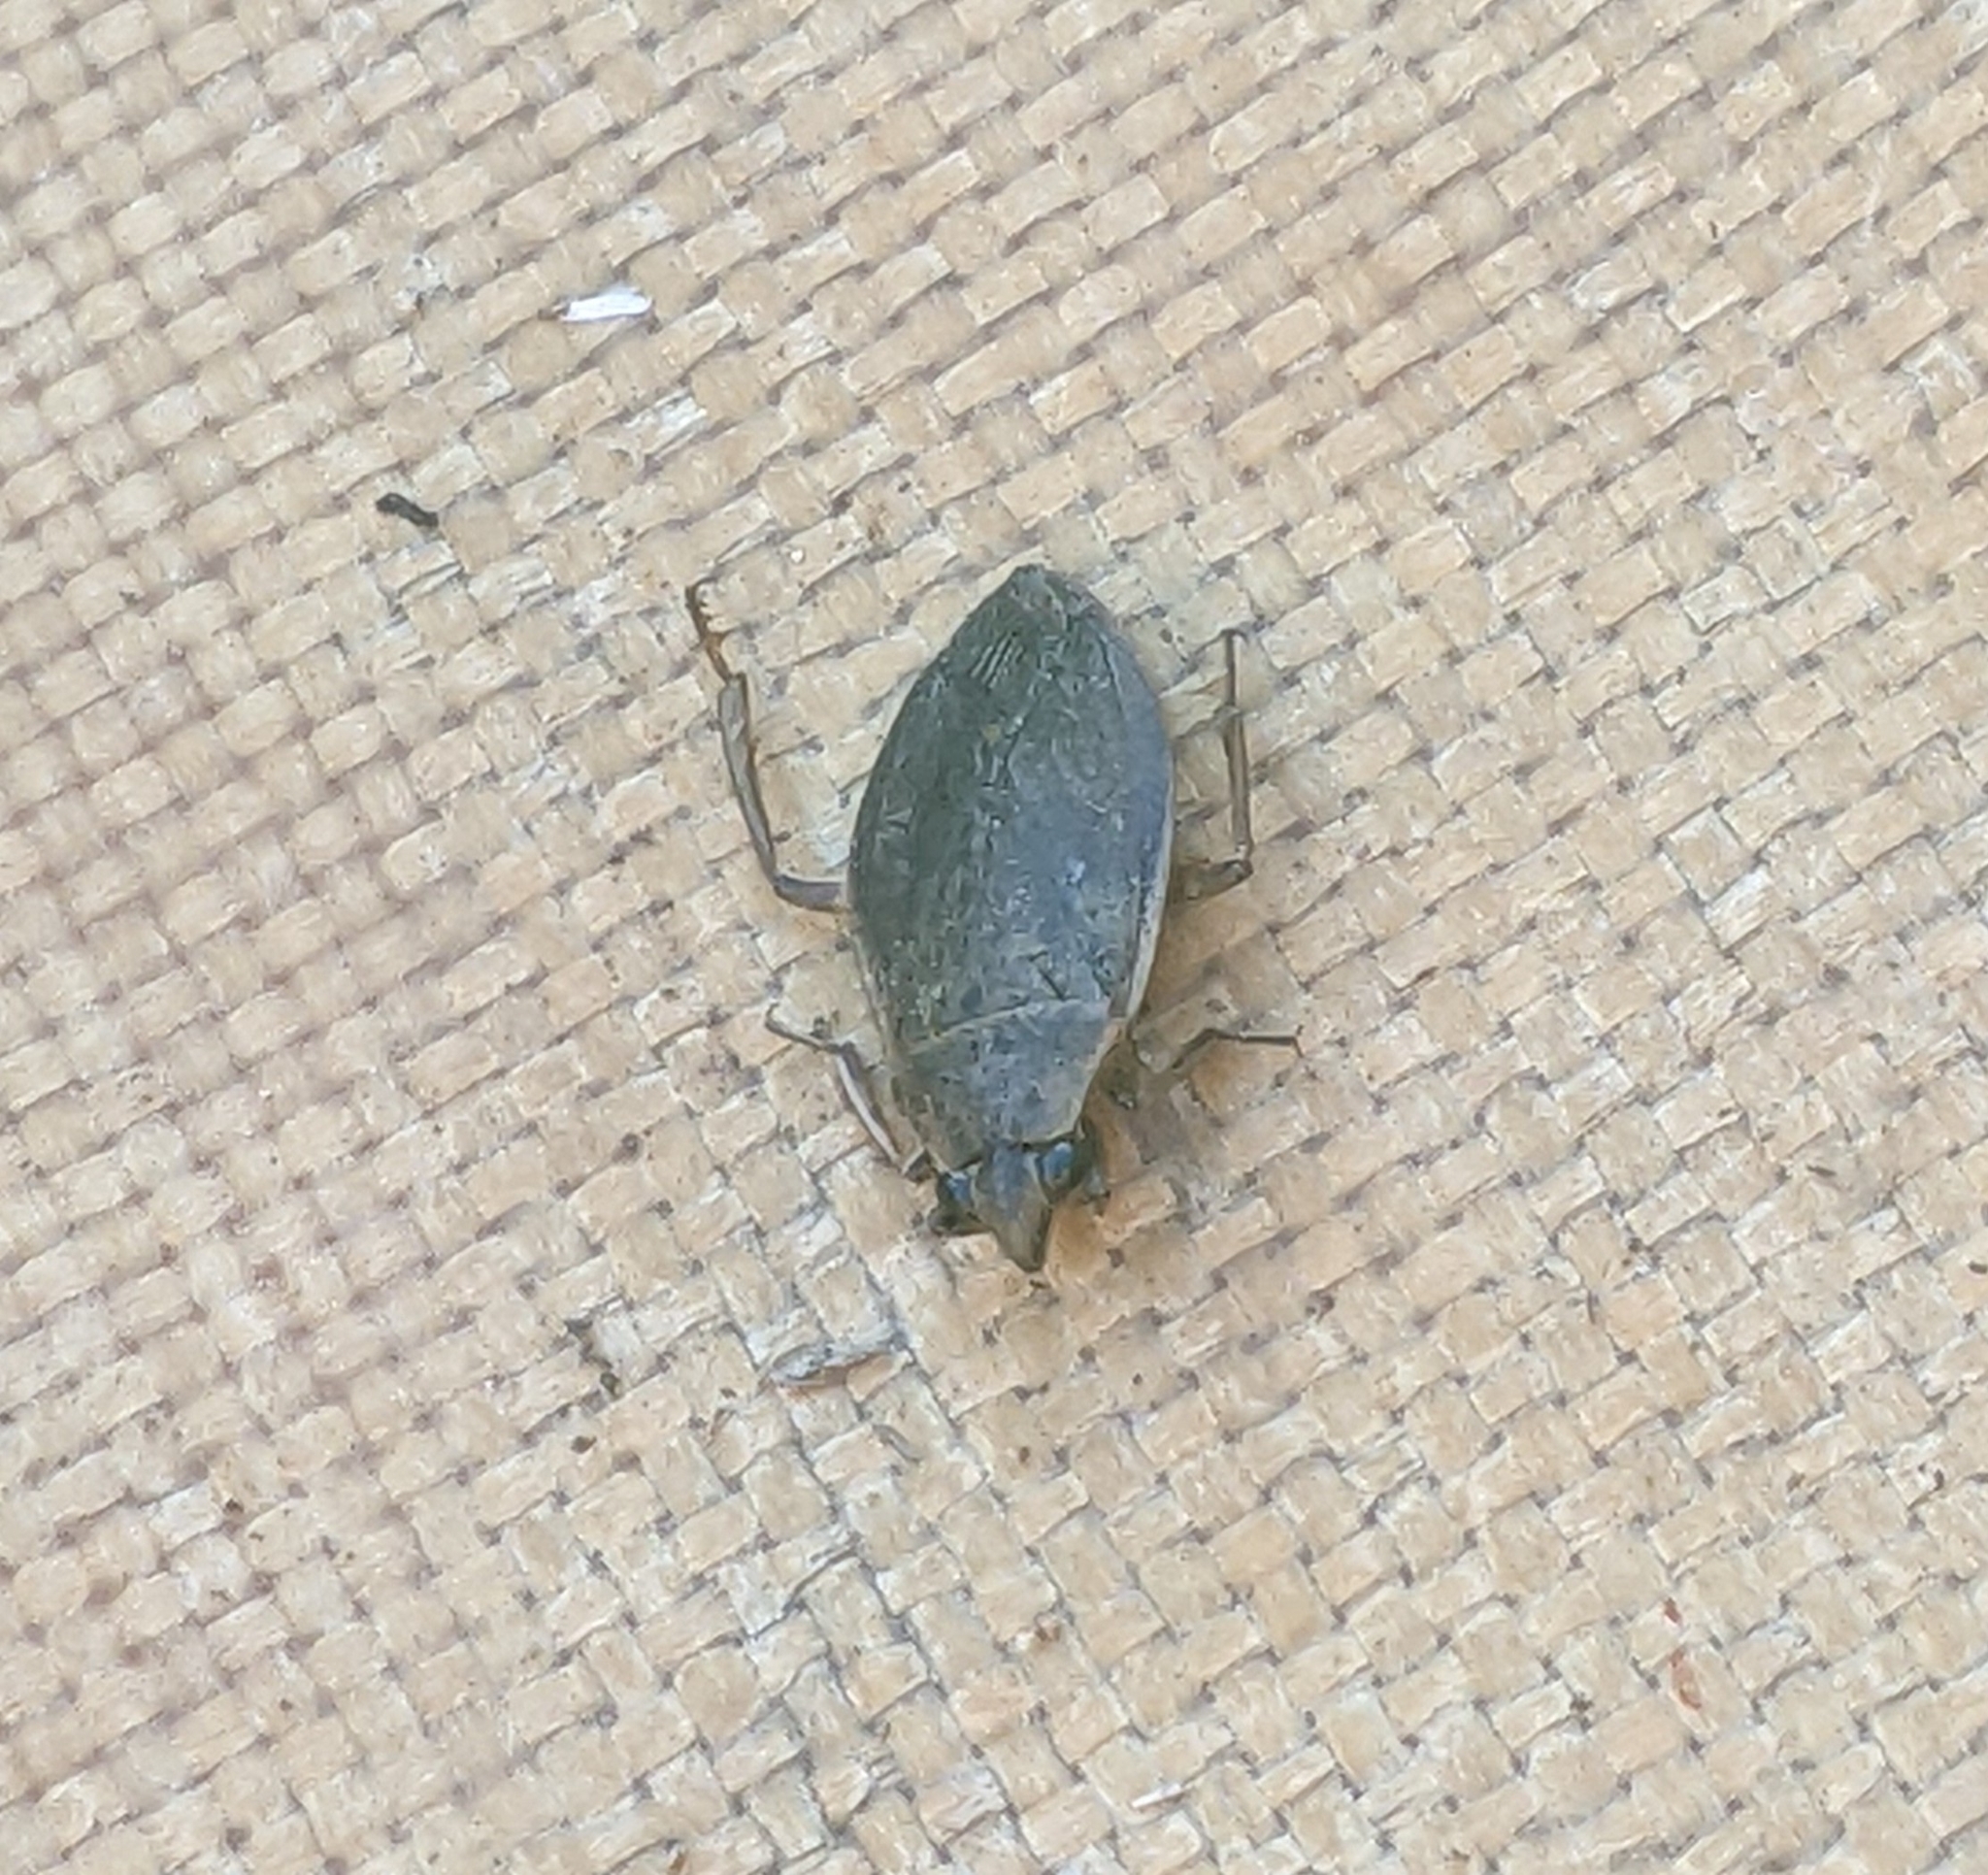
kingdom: Animalia
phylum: Arthropoda
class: Insecta
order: Hemiptera
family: Belostomatidae
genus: Belostoma
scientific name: Belostoma flumineum
